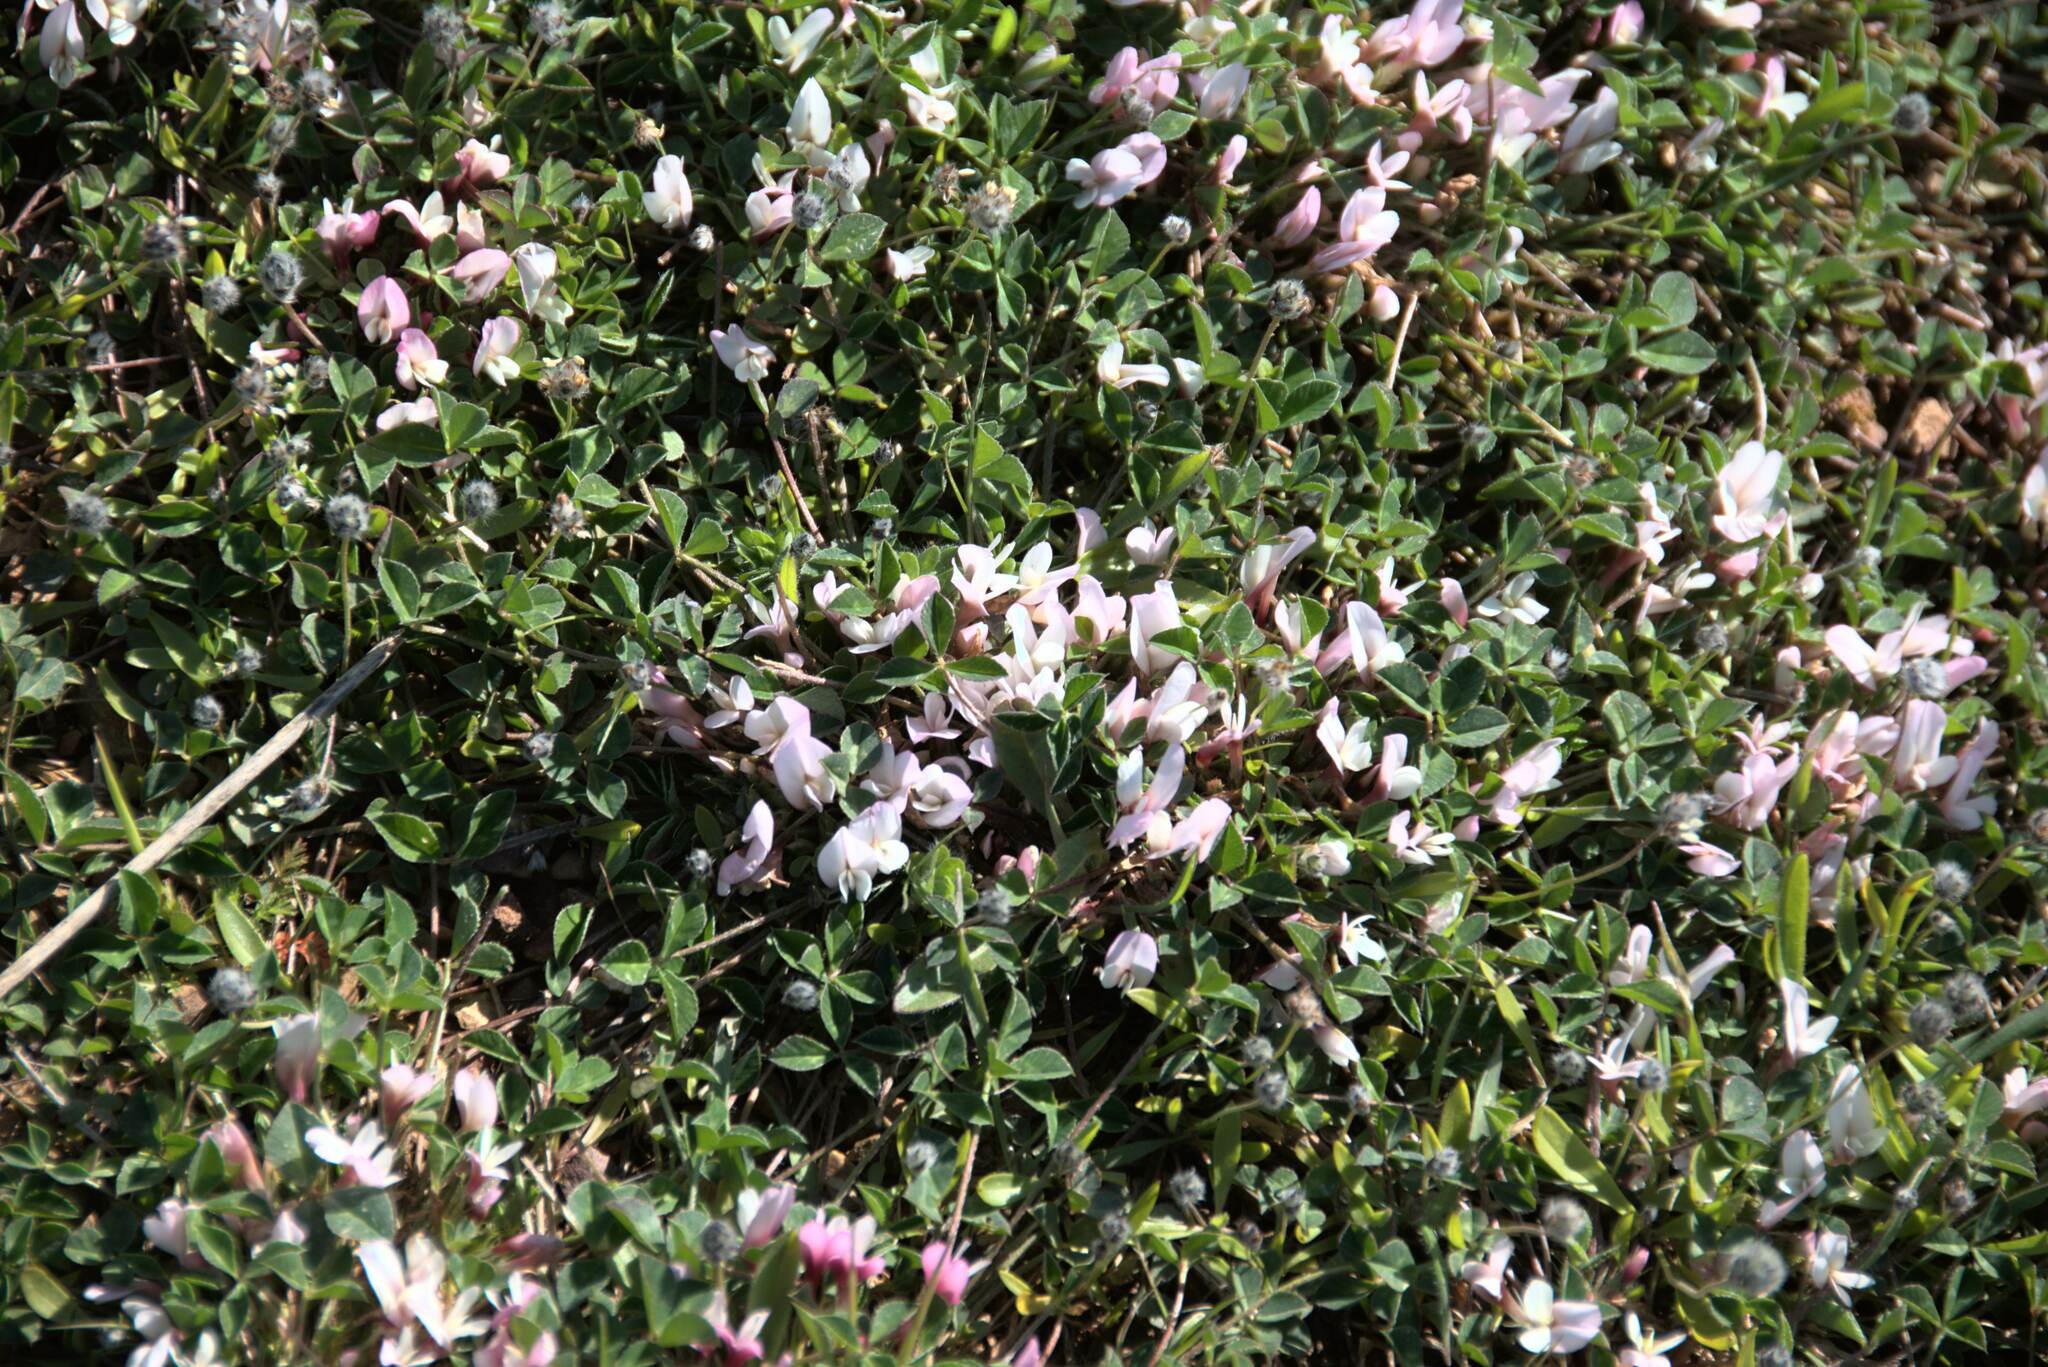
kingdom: Plantae
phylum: Tracheophyta
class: Magnoliopsida
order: Fabales
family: Fabaceae
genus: Trifolium
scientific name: Trifolium uniflorum
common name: One-flower clover
